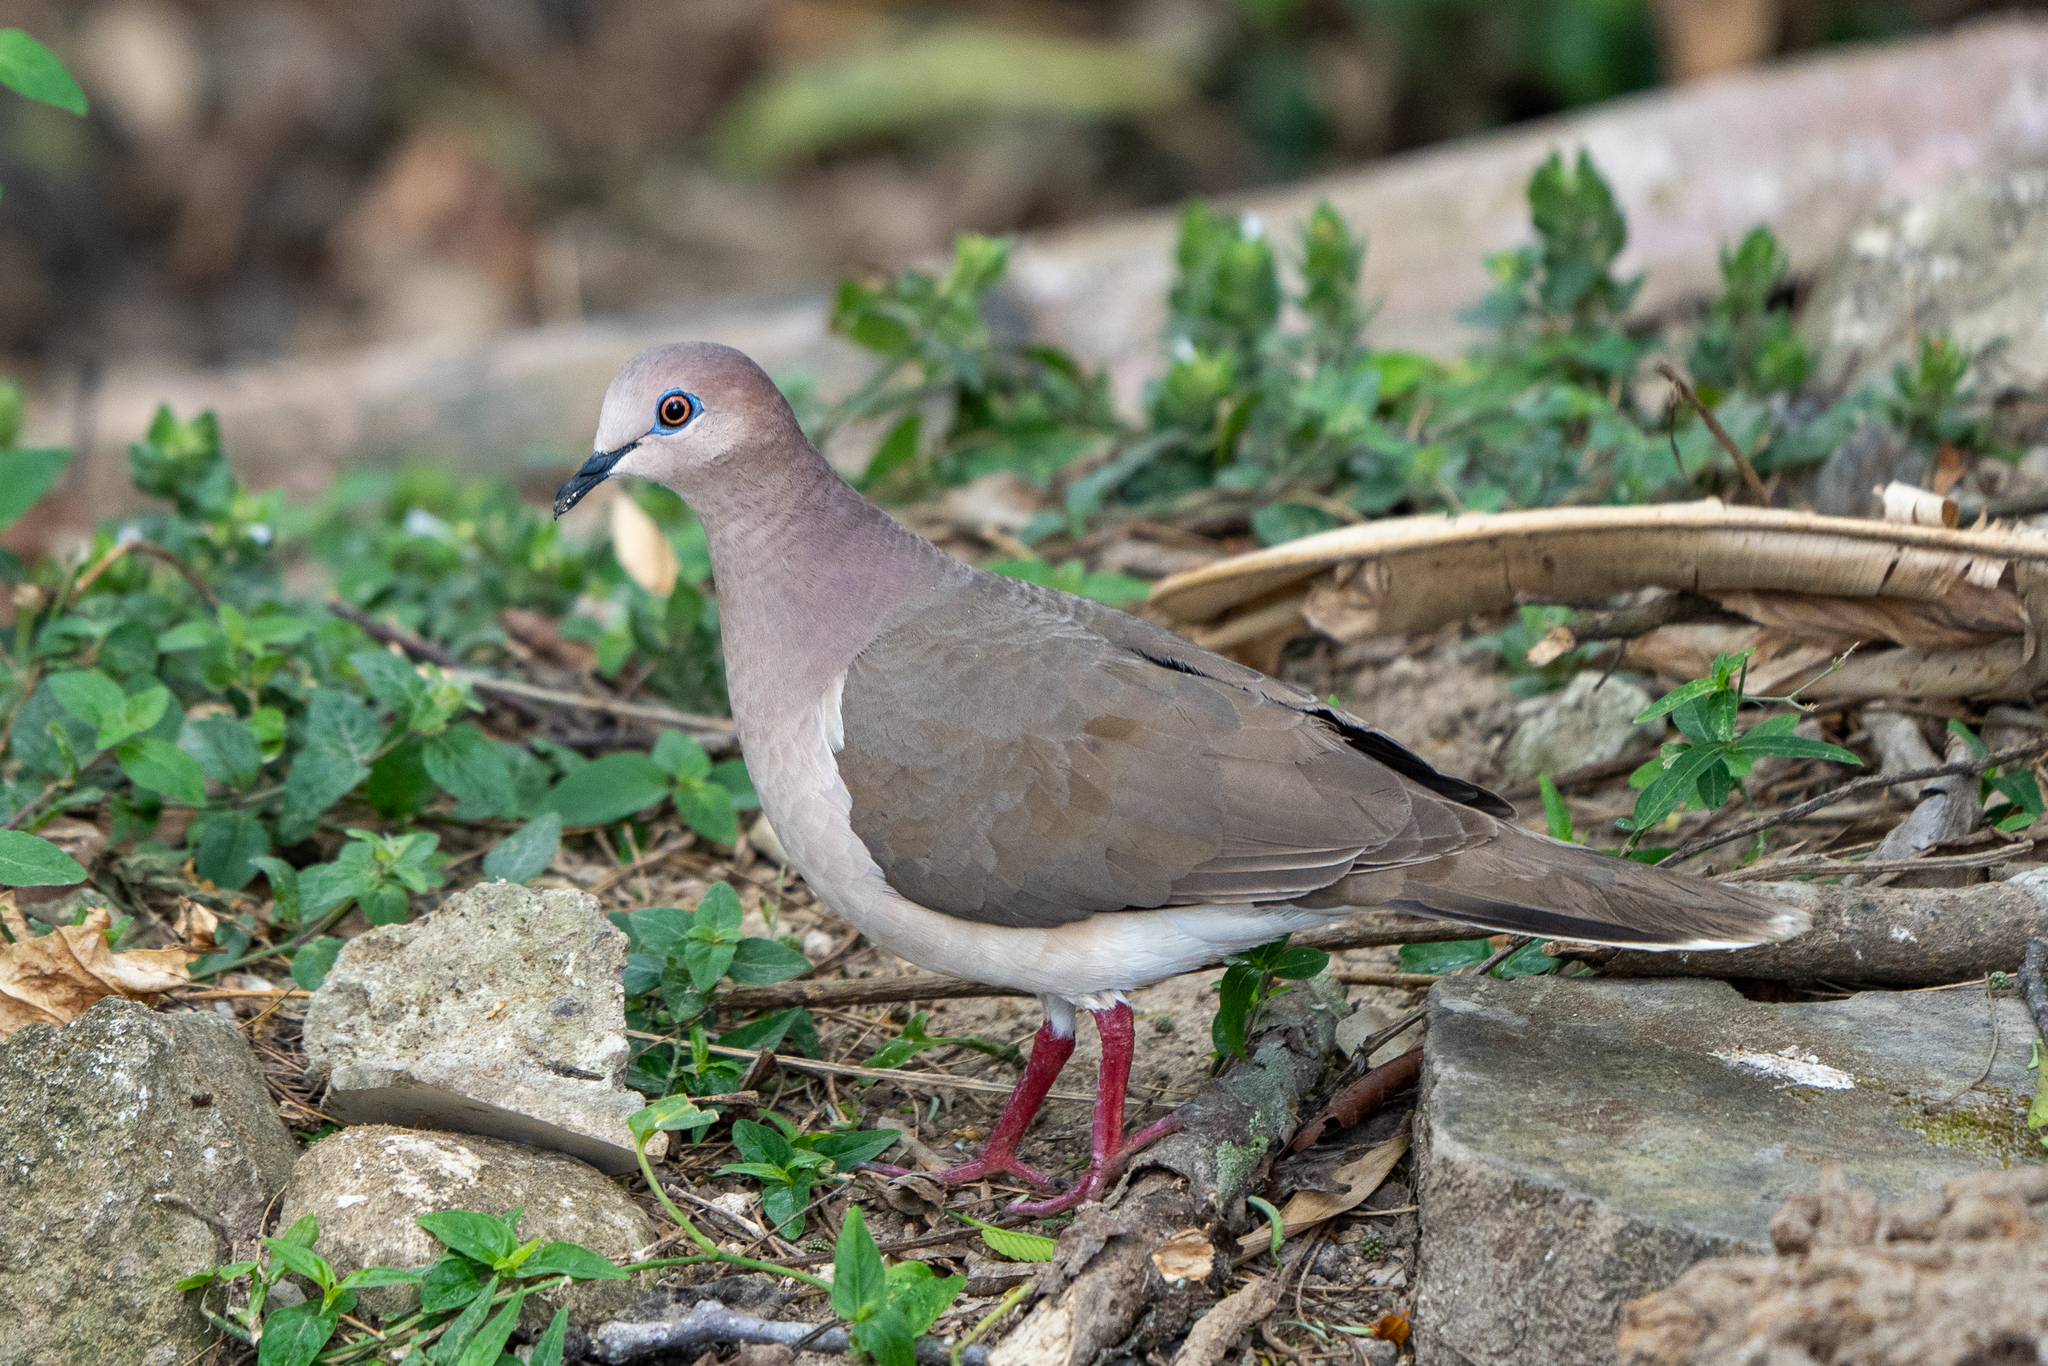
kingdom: Animalia
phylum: Chordata
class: Aves
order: Columbiformes
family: Columbidae
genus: Leptotila
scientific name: Leptotila verreauxi
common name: White-tipped dove
